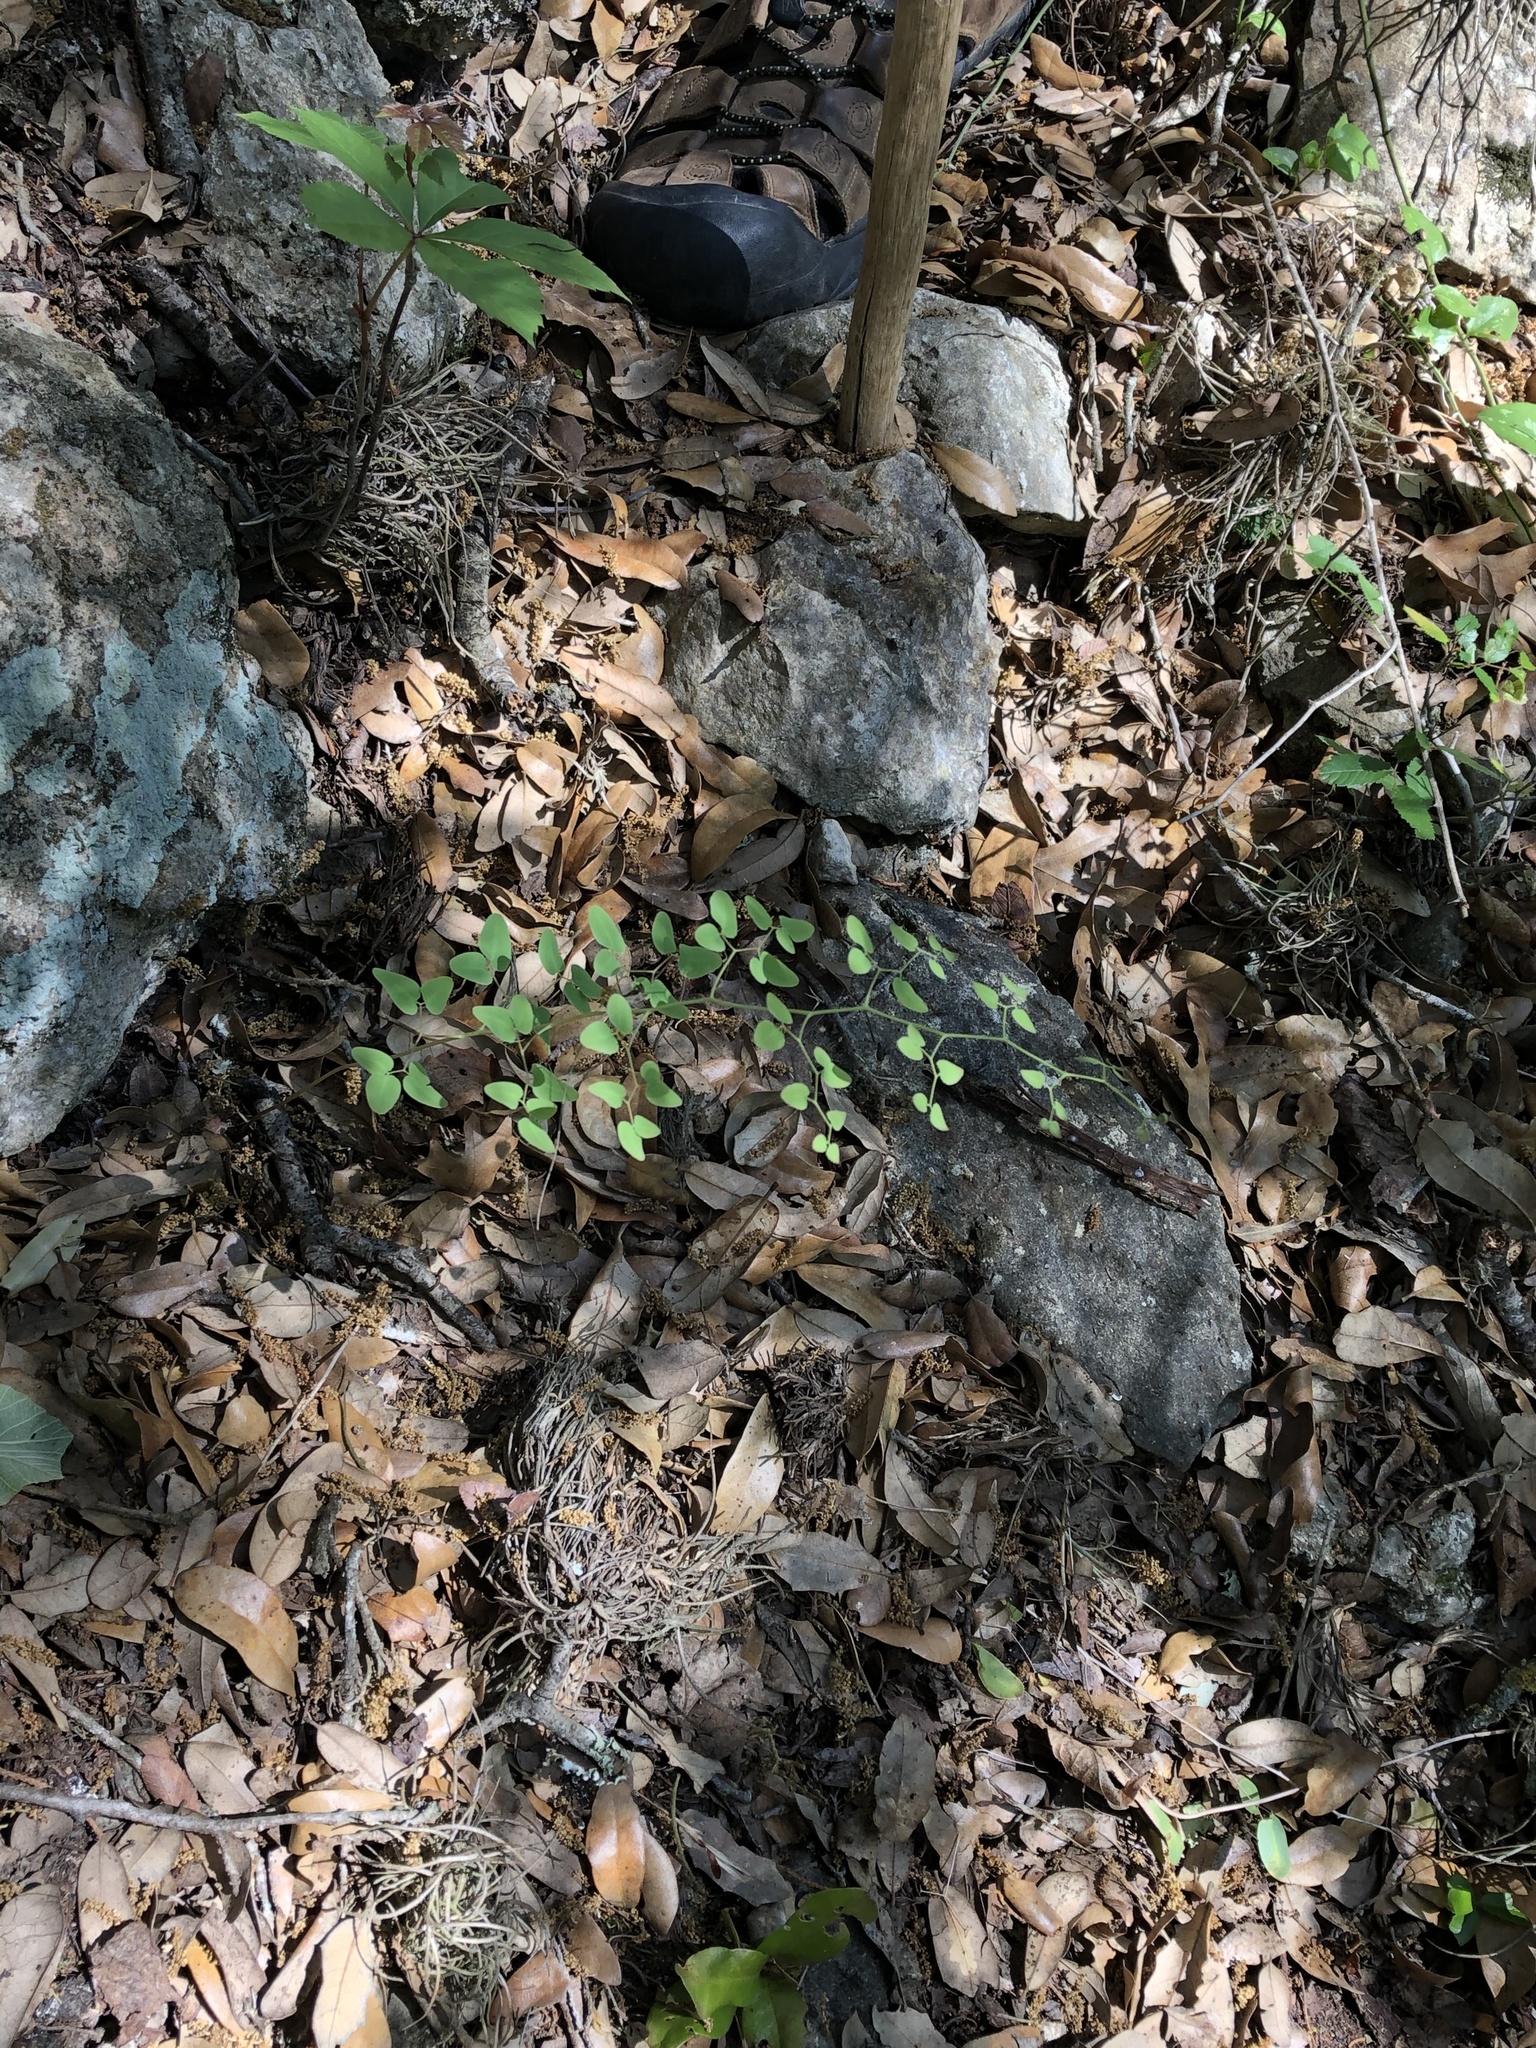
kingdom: Plantae
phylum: Tracheophyta
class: Polypodiopsida
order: Polypodiales
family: Pteridaceae
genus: Pellaea
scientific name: Pellaea ovata
